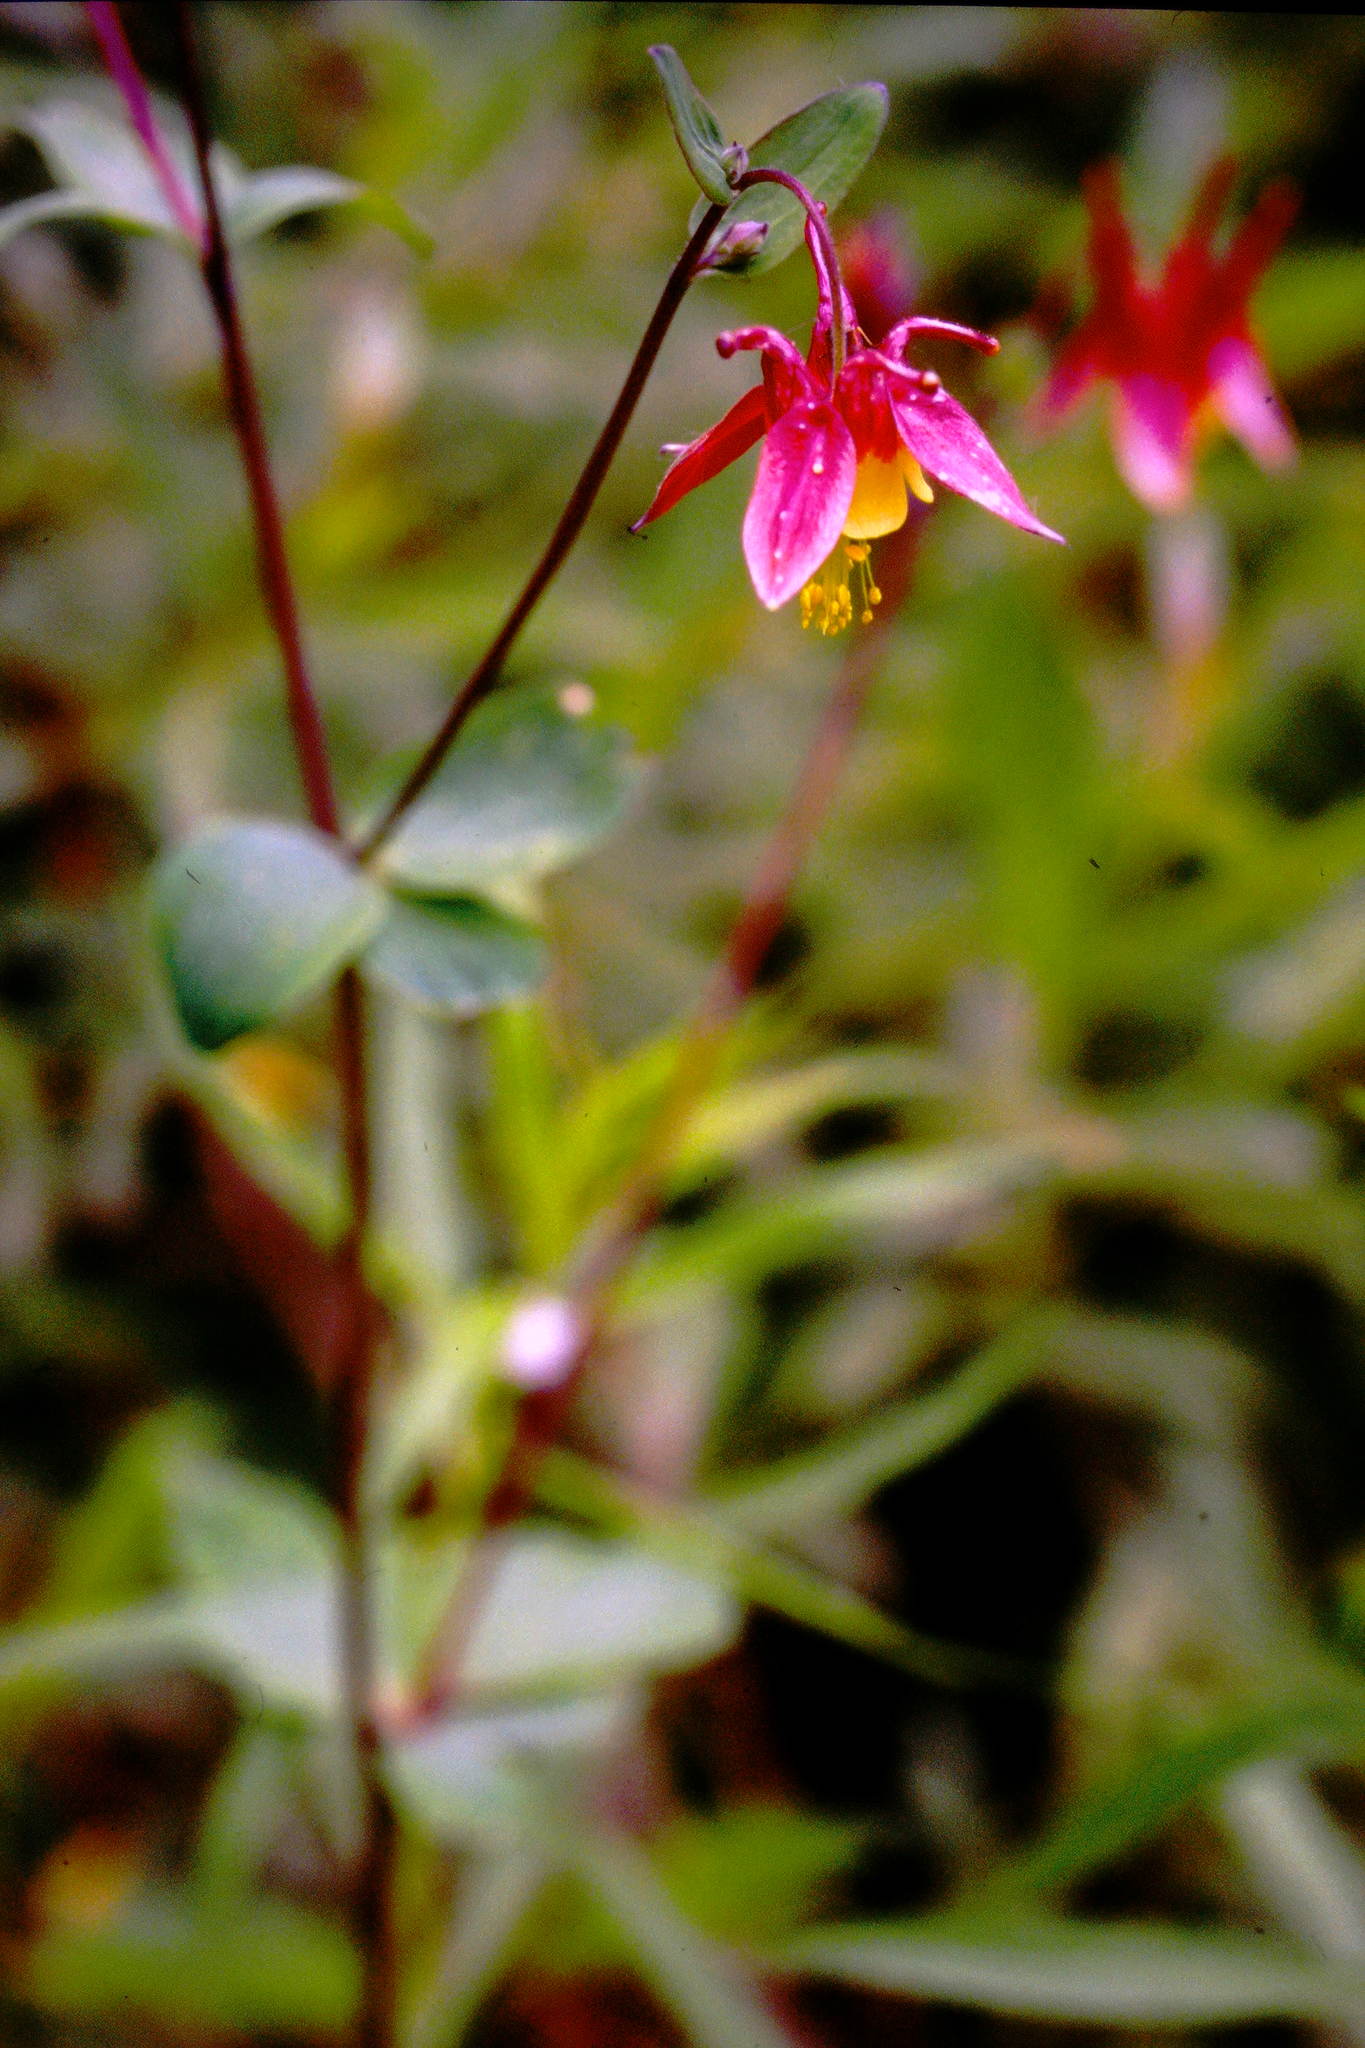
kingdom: Plantae
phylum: Tracheophyta
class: Magnoliopsida
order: Ranunculales
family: Ranunculaceae
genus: Aquilegia
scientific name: Aquilegia canadensis
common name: American columbine
